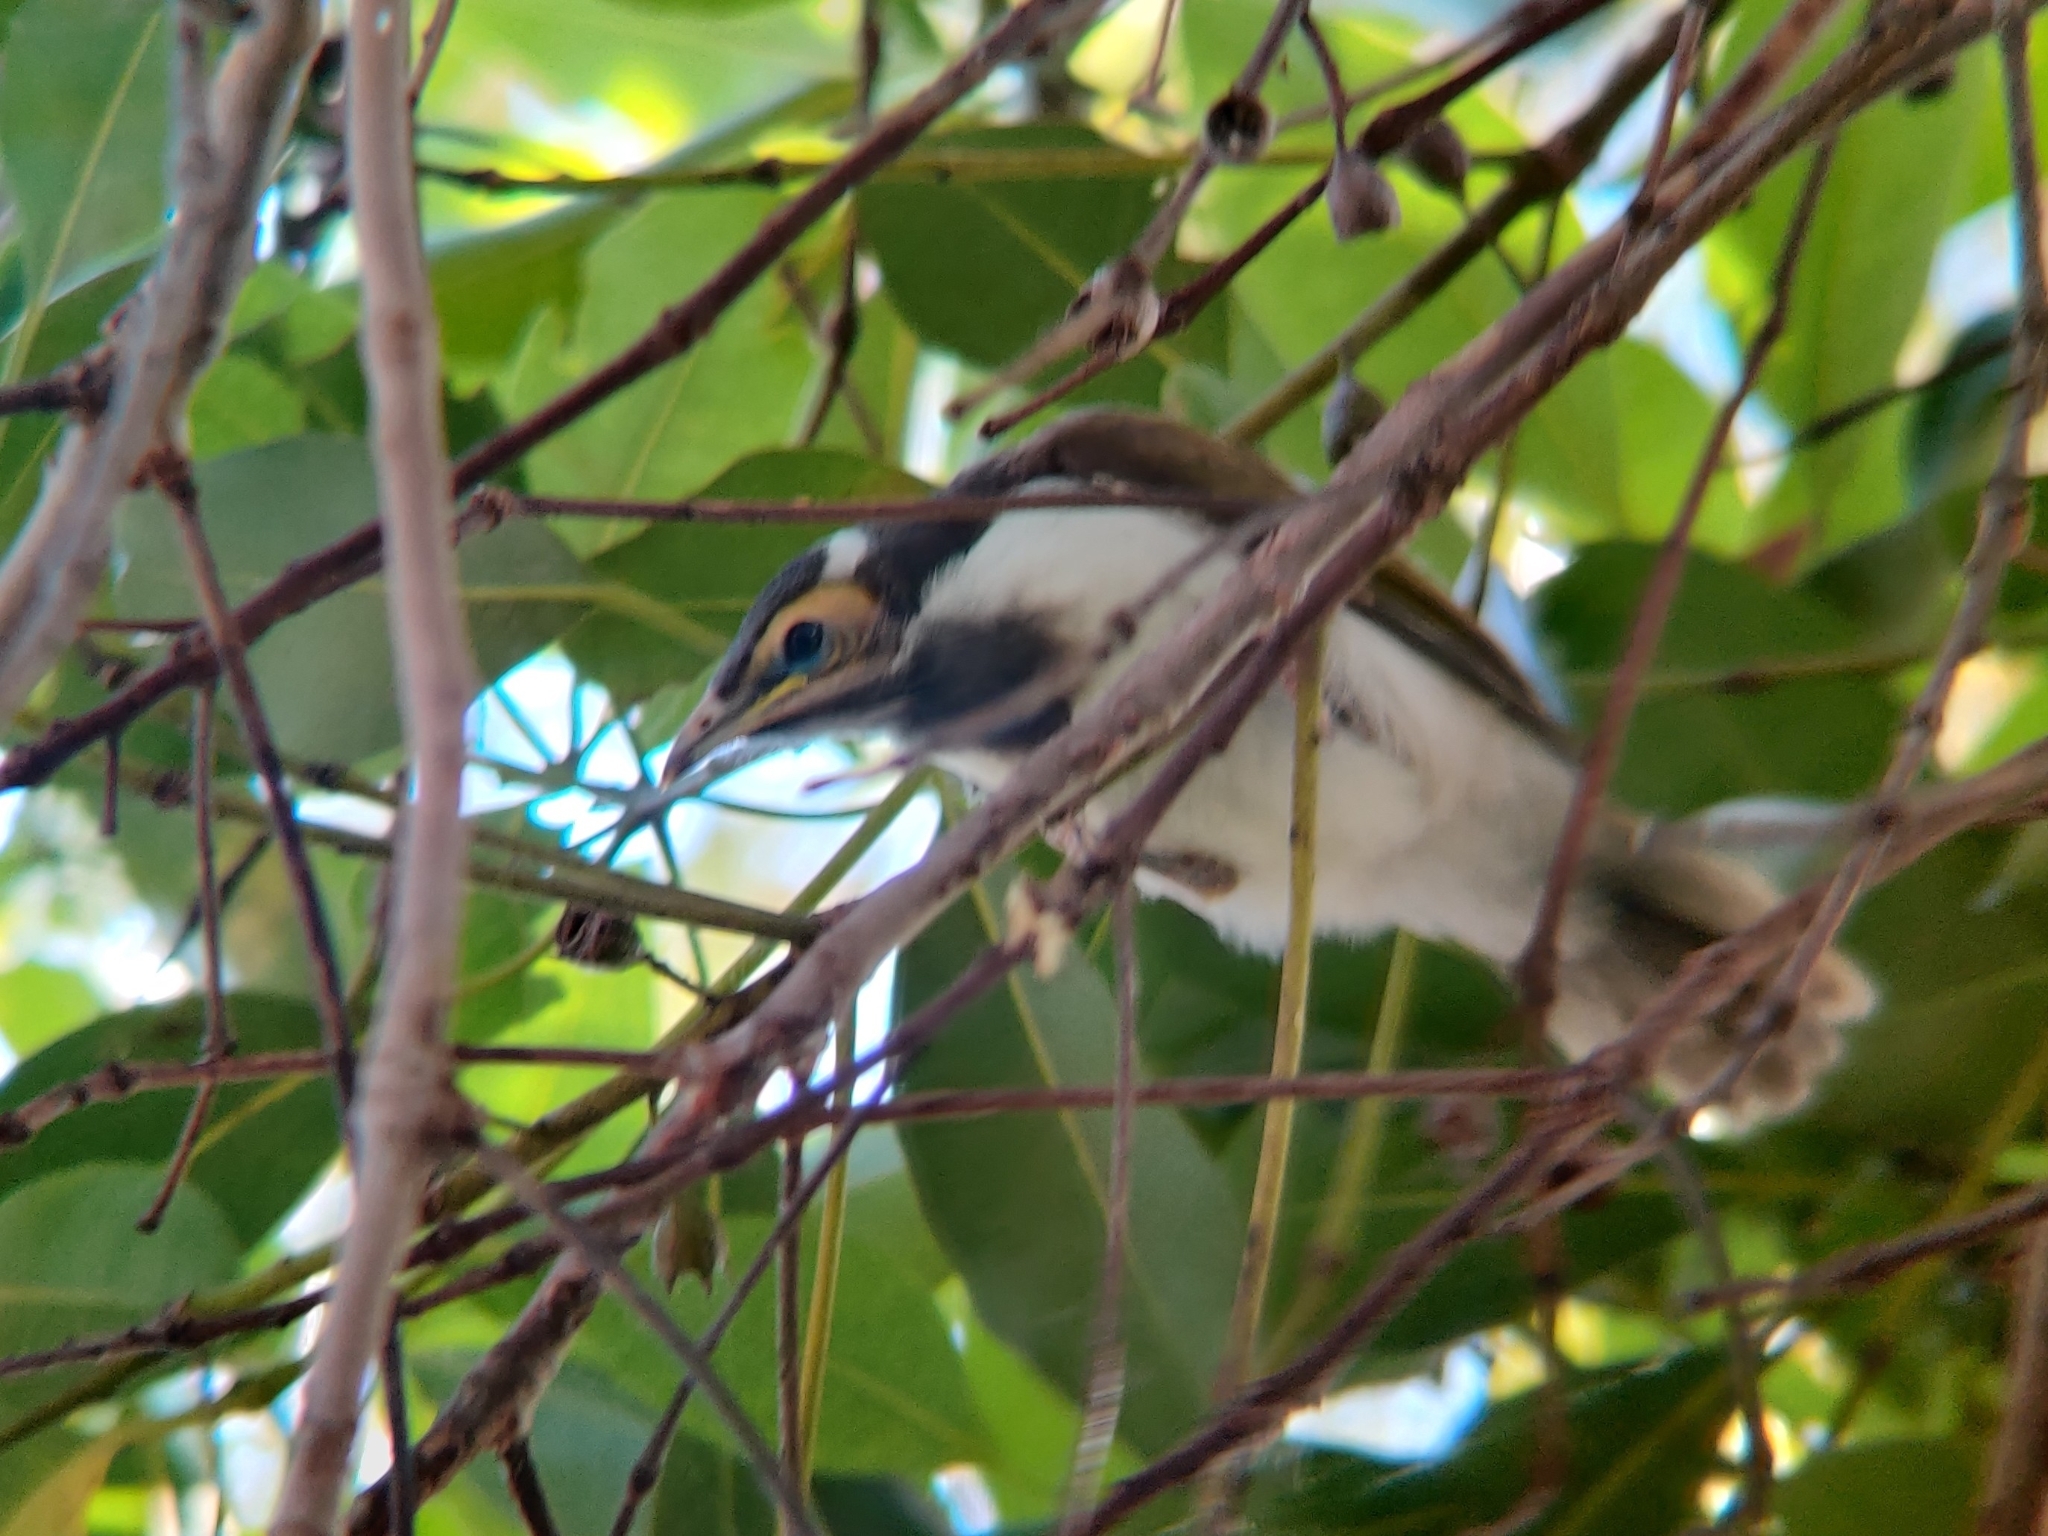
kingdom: Animalia
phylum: Chordata
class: Aves
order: Passeriformes
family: Meliphagidae
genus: Entomyzon
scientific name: Entomyzon cyanotis
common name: Blue-faced honeyeater
